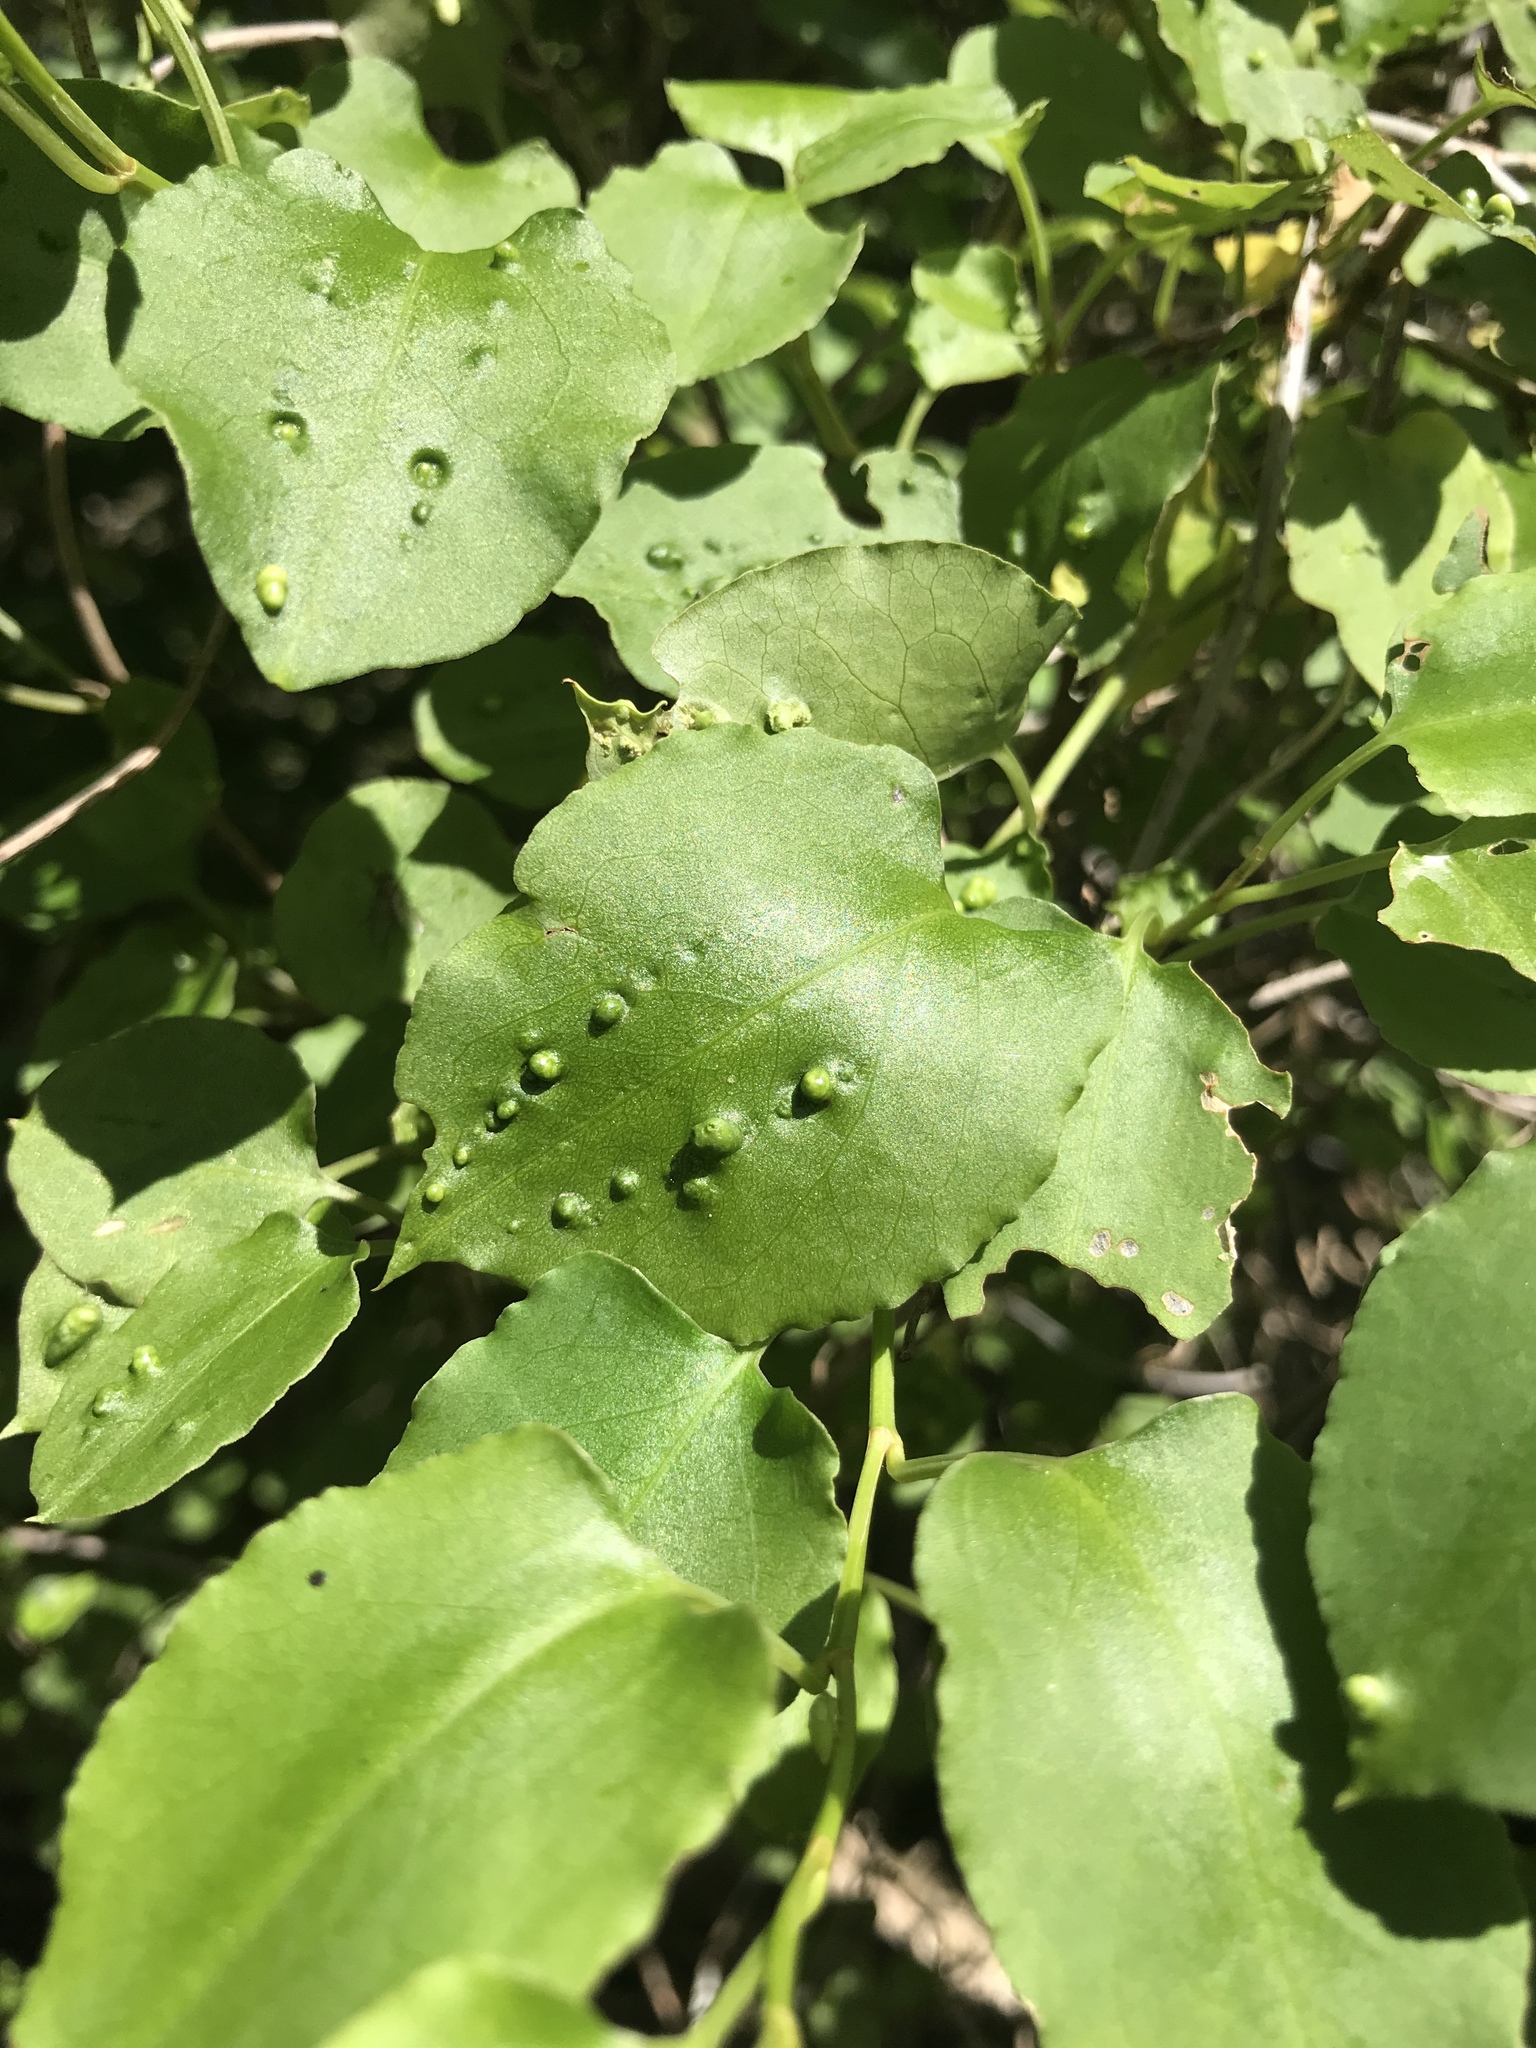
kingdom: Animalia
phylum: Arthropoda
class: Arachnida
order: Trombidiformes
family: Eriophyidae
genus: Aceria
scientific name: Aceria lamii
